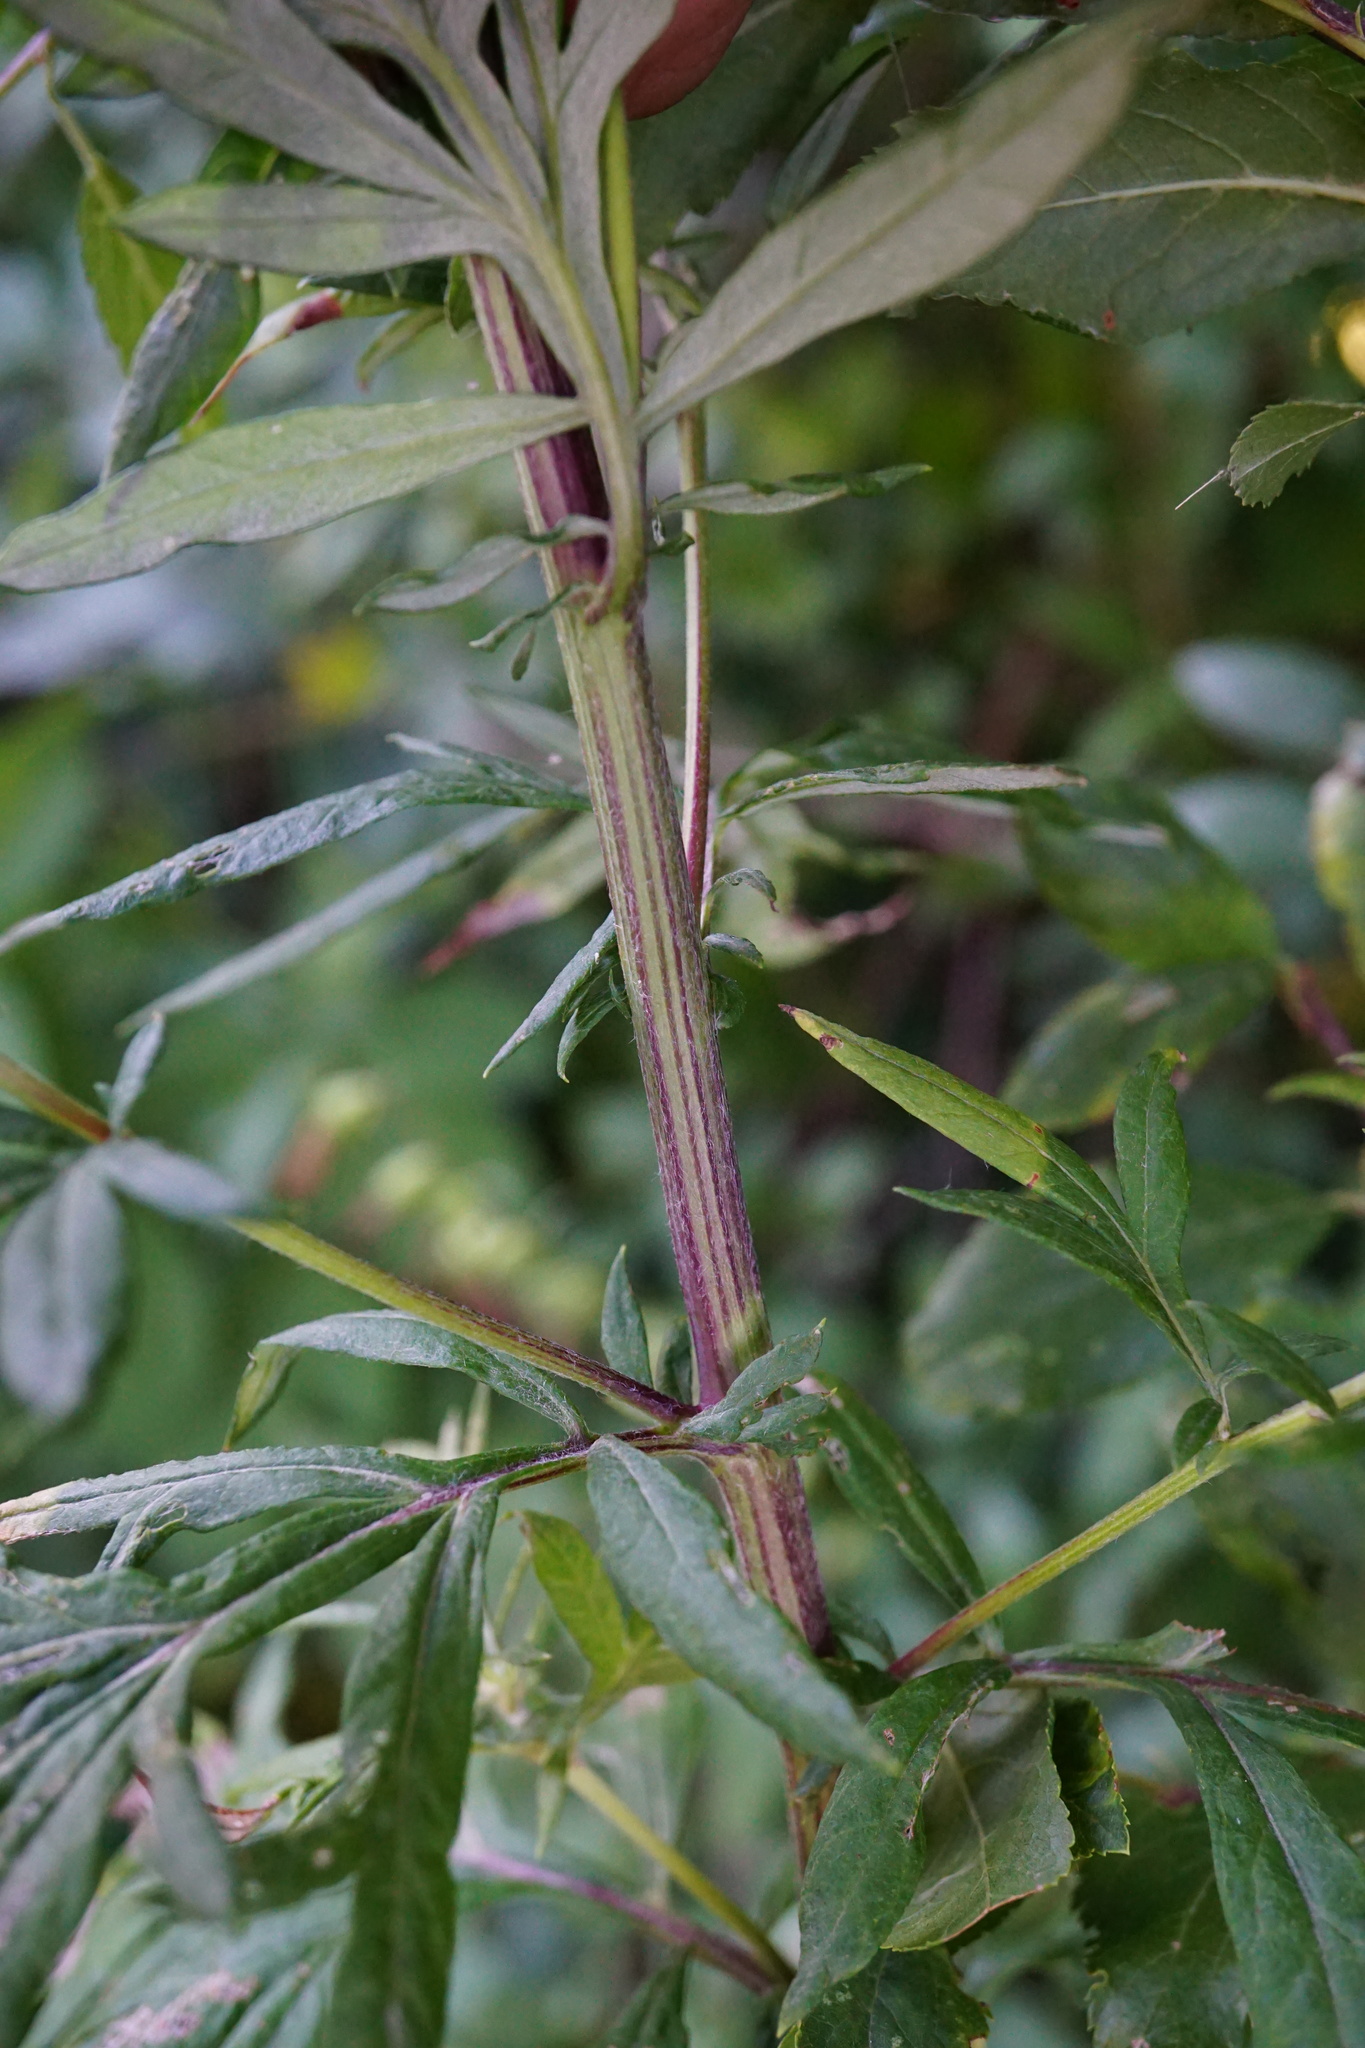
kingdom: Plantae
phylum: Tracheophyta
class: Magnoliopsida
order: Asterales
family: Asteraceae
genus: Artemisia
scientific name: Artemisia vulgaris
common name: Mugwort
